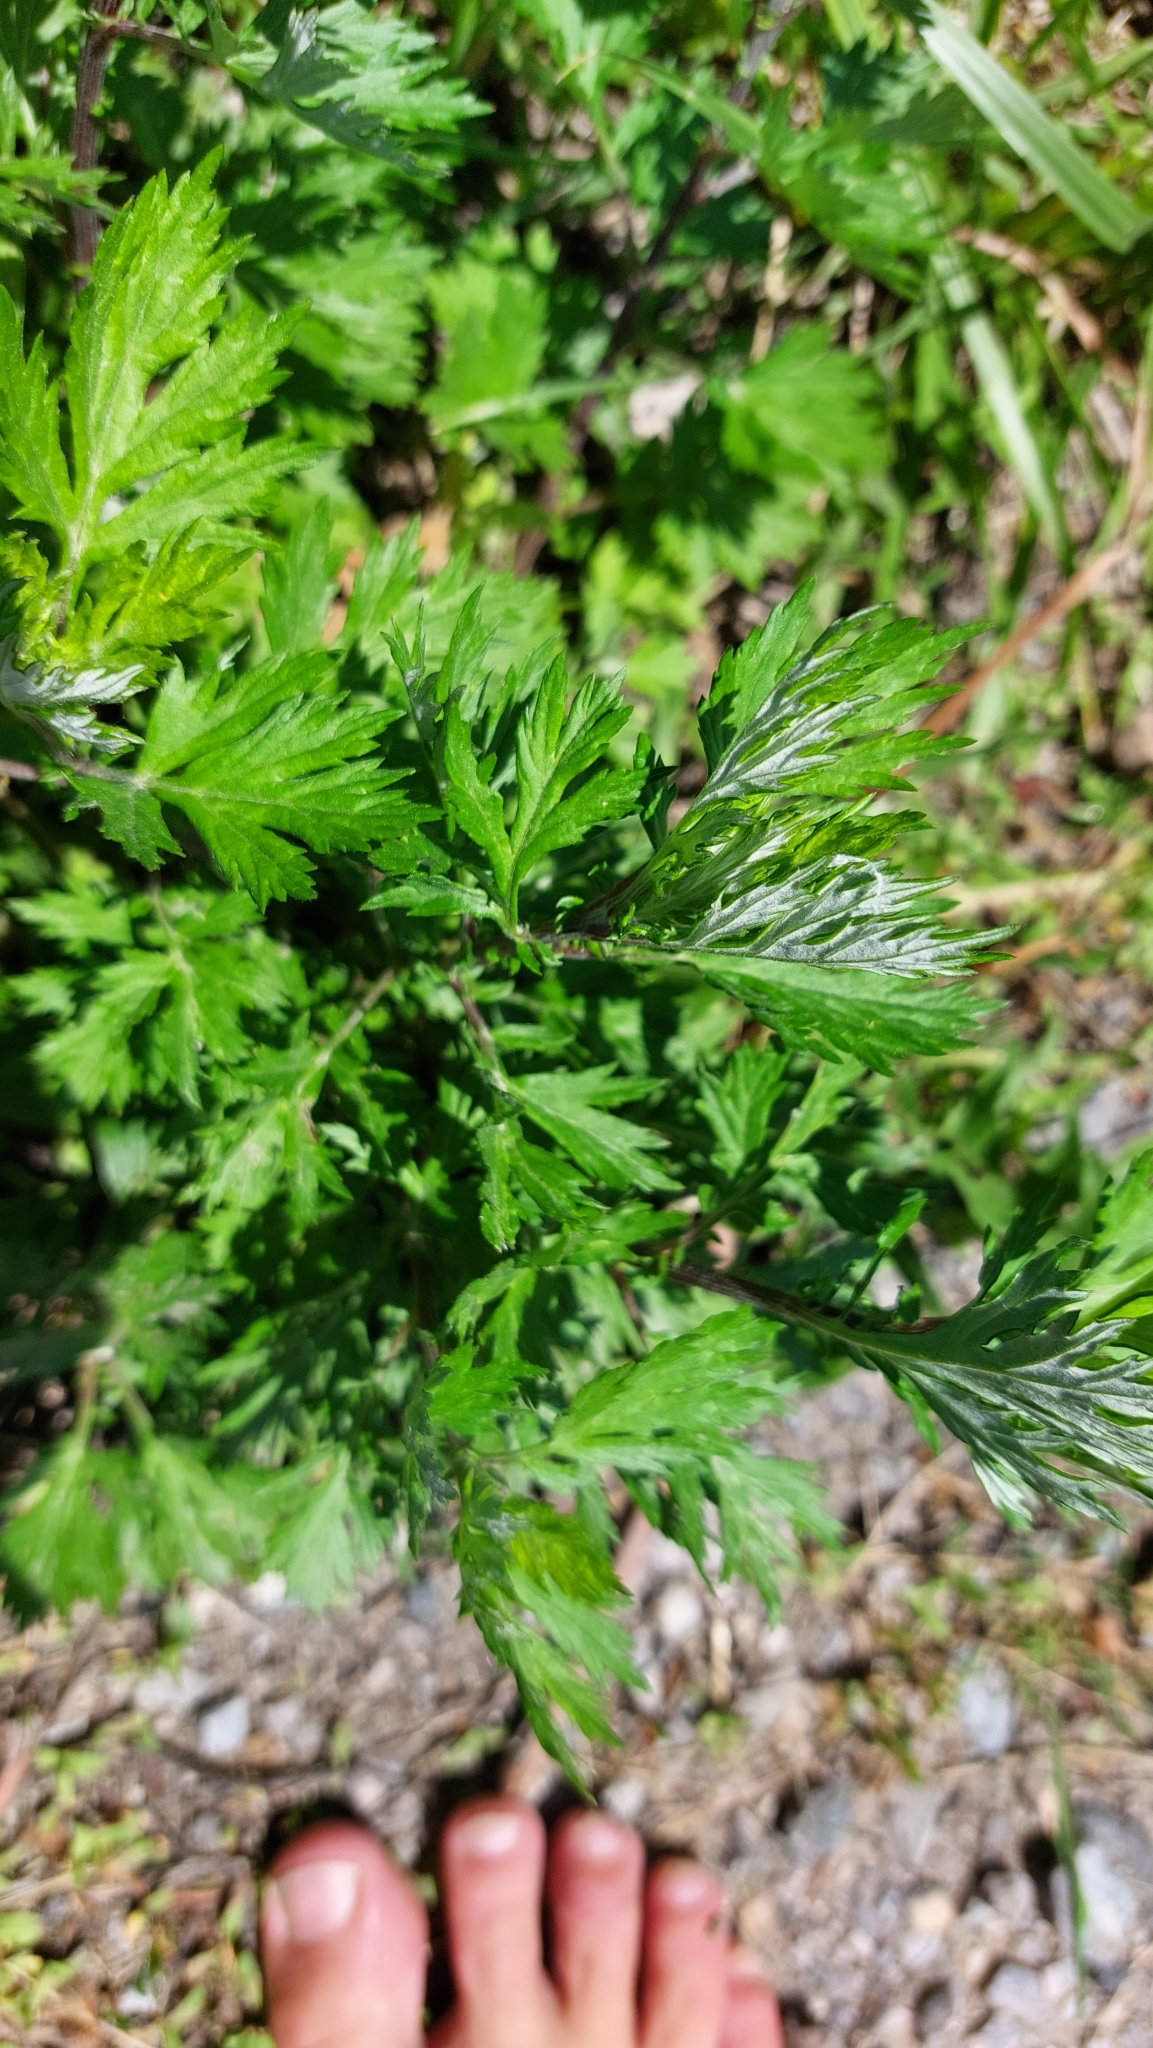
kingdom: Plantae
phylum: Tracheophyta
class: Magnoliopsida
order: Asterales
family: Asteraceae
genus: Artemisia
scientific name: Artemisia vulgaris
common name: Mugwort
